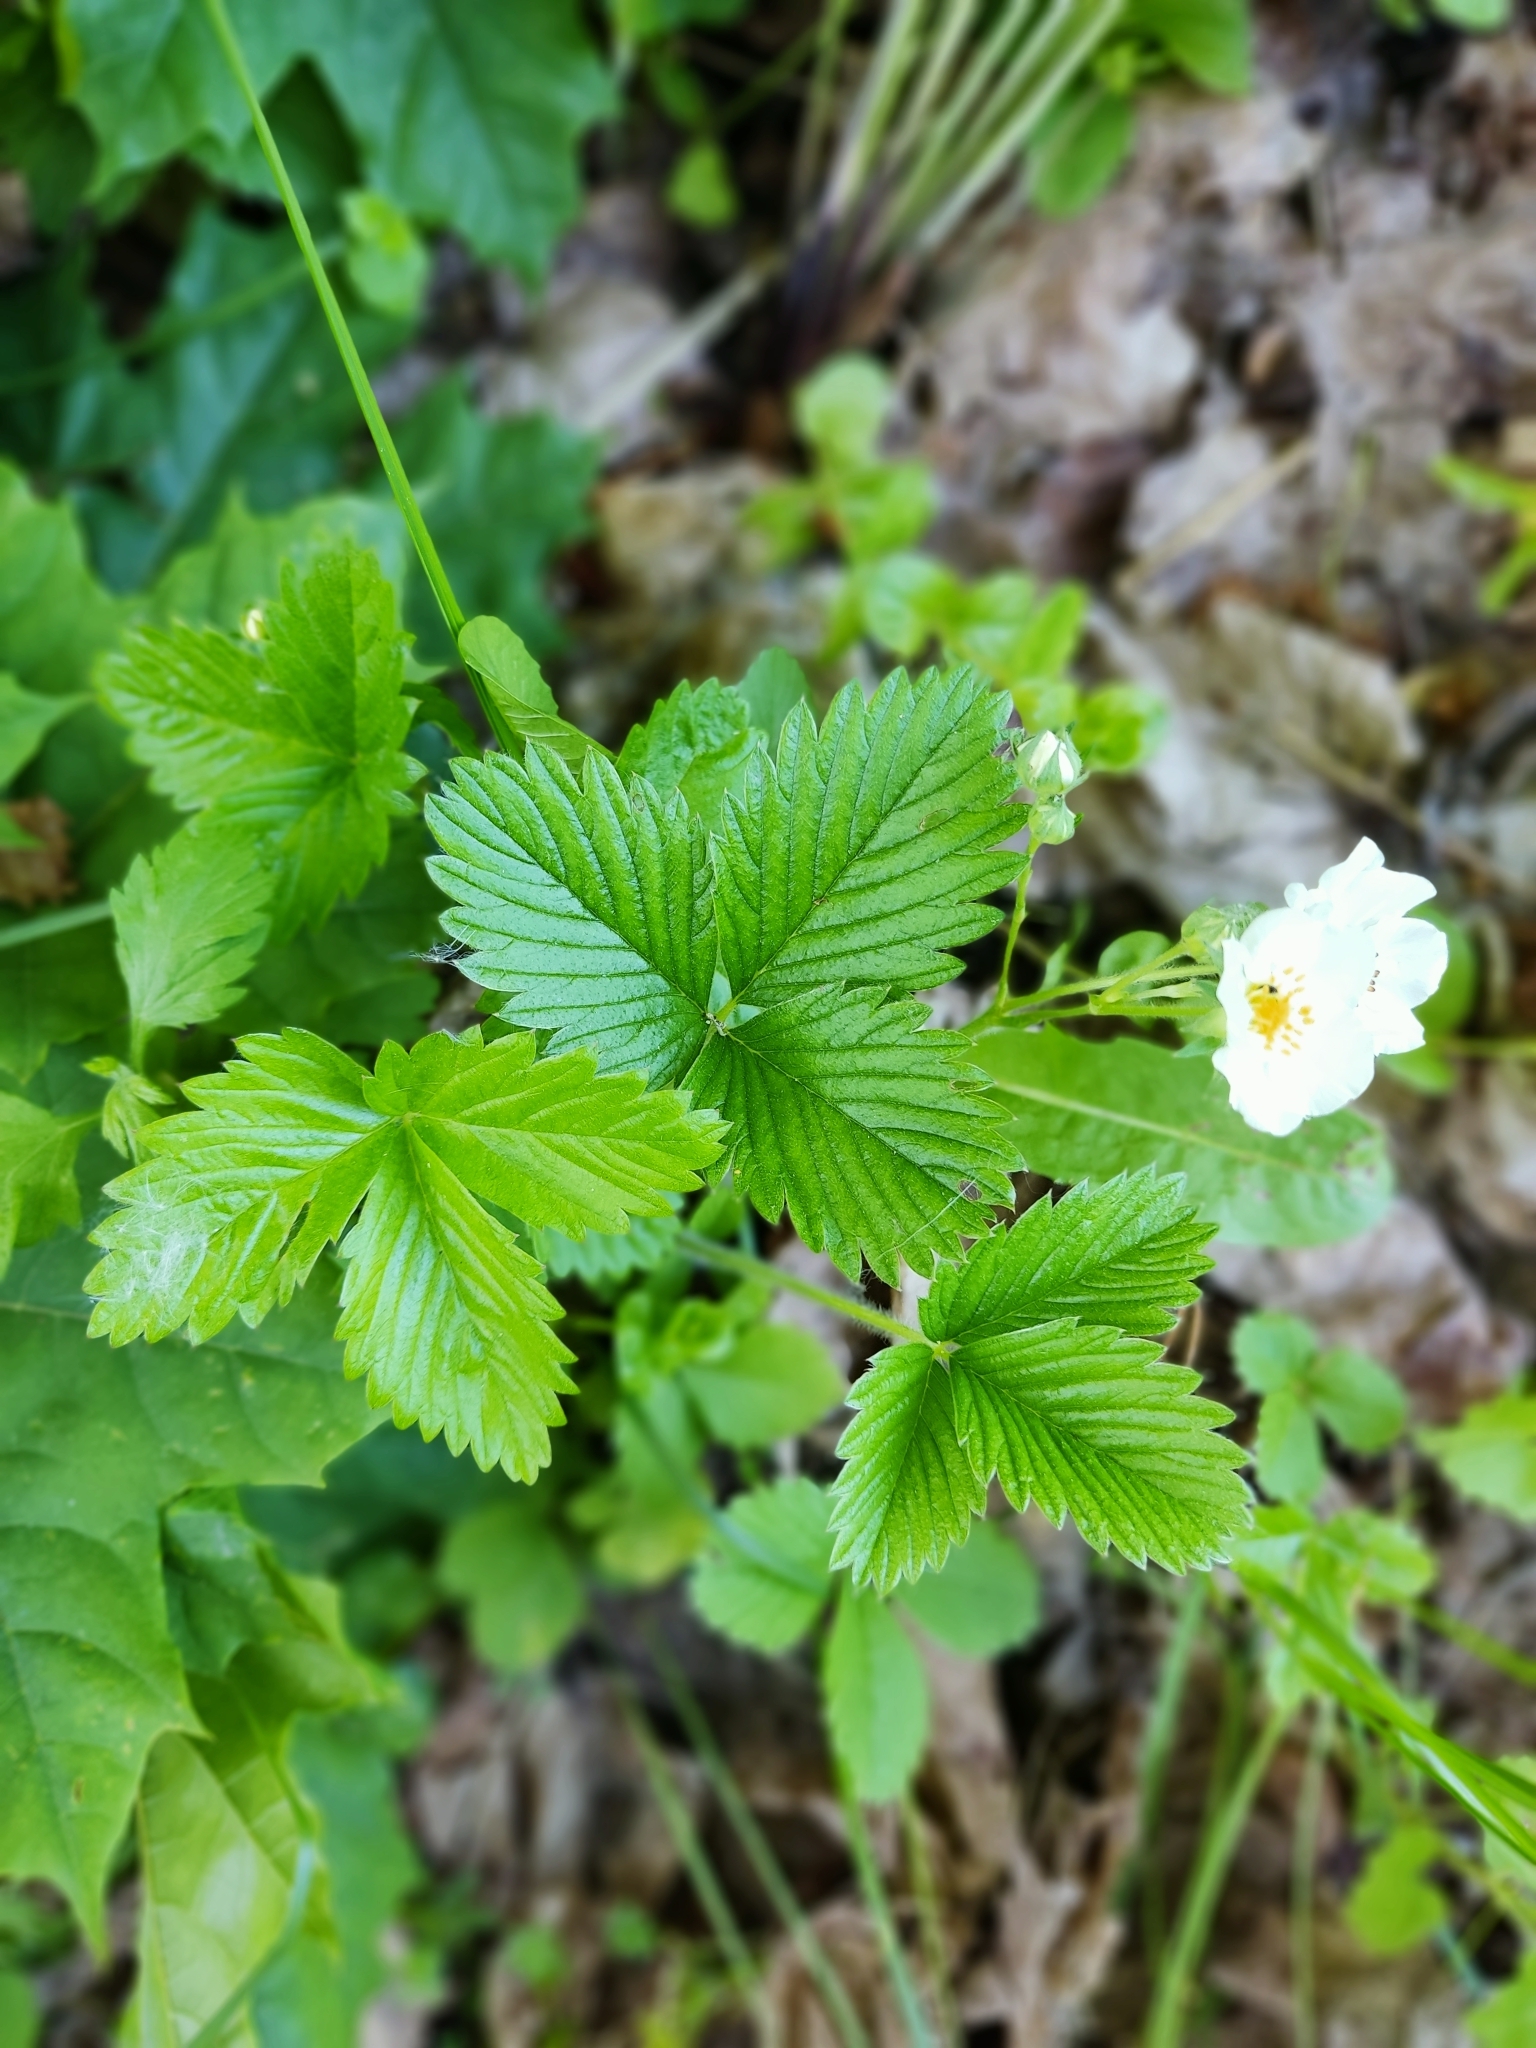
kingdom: Plantae
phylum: Tracheophyta
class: Magnoliopsida
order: Rosales
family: Rosaceae
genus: Fragaria
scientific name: Fragaria viridis
